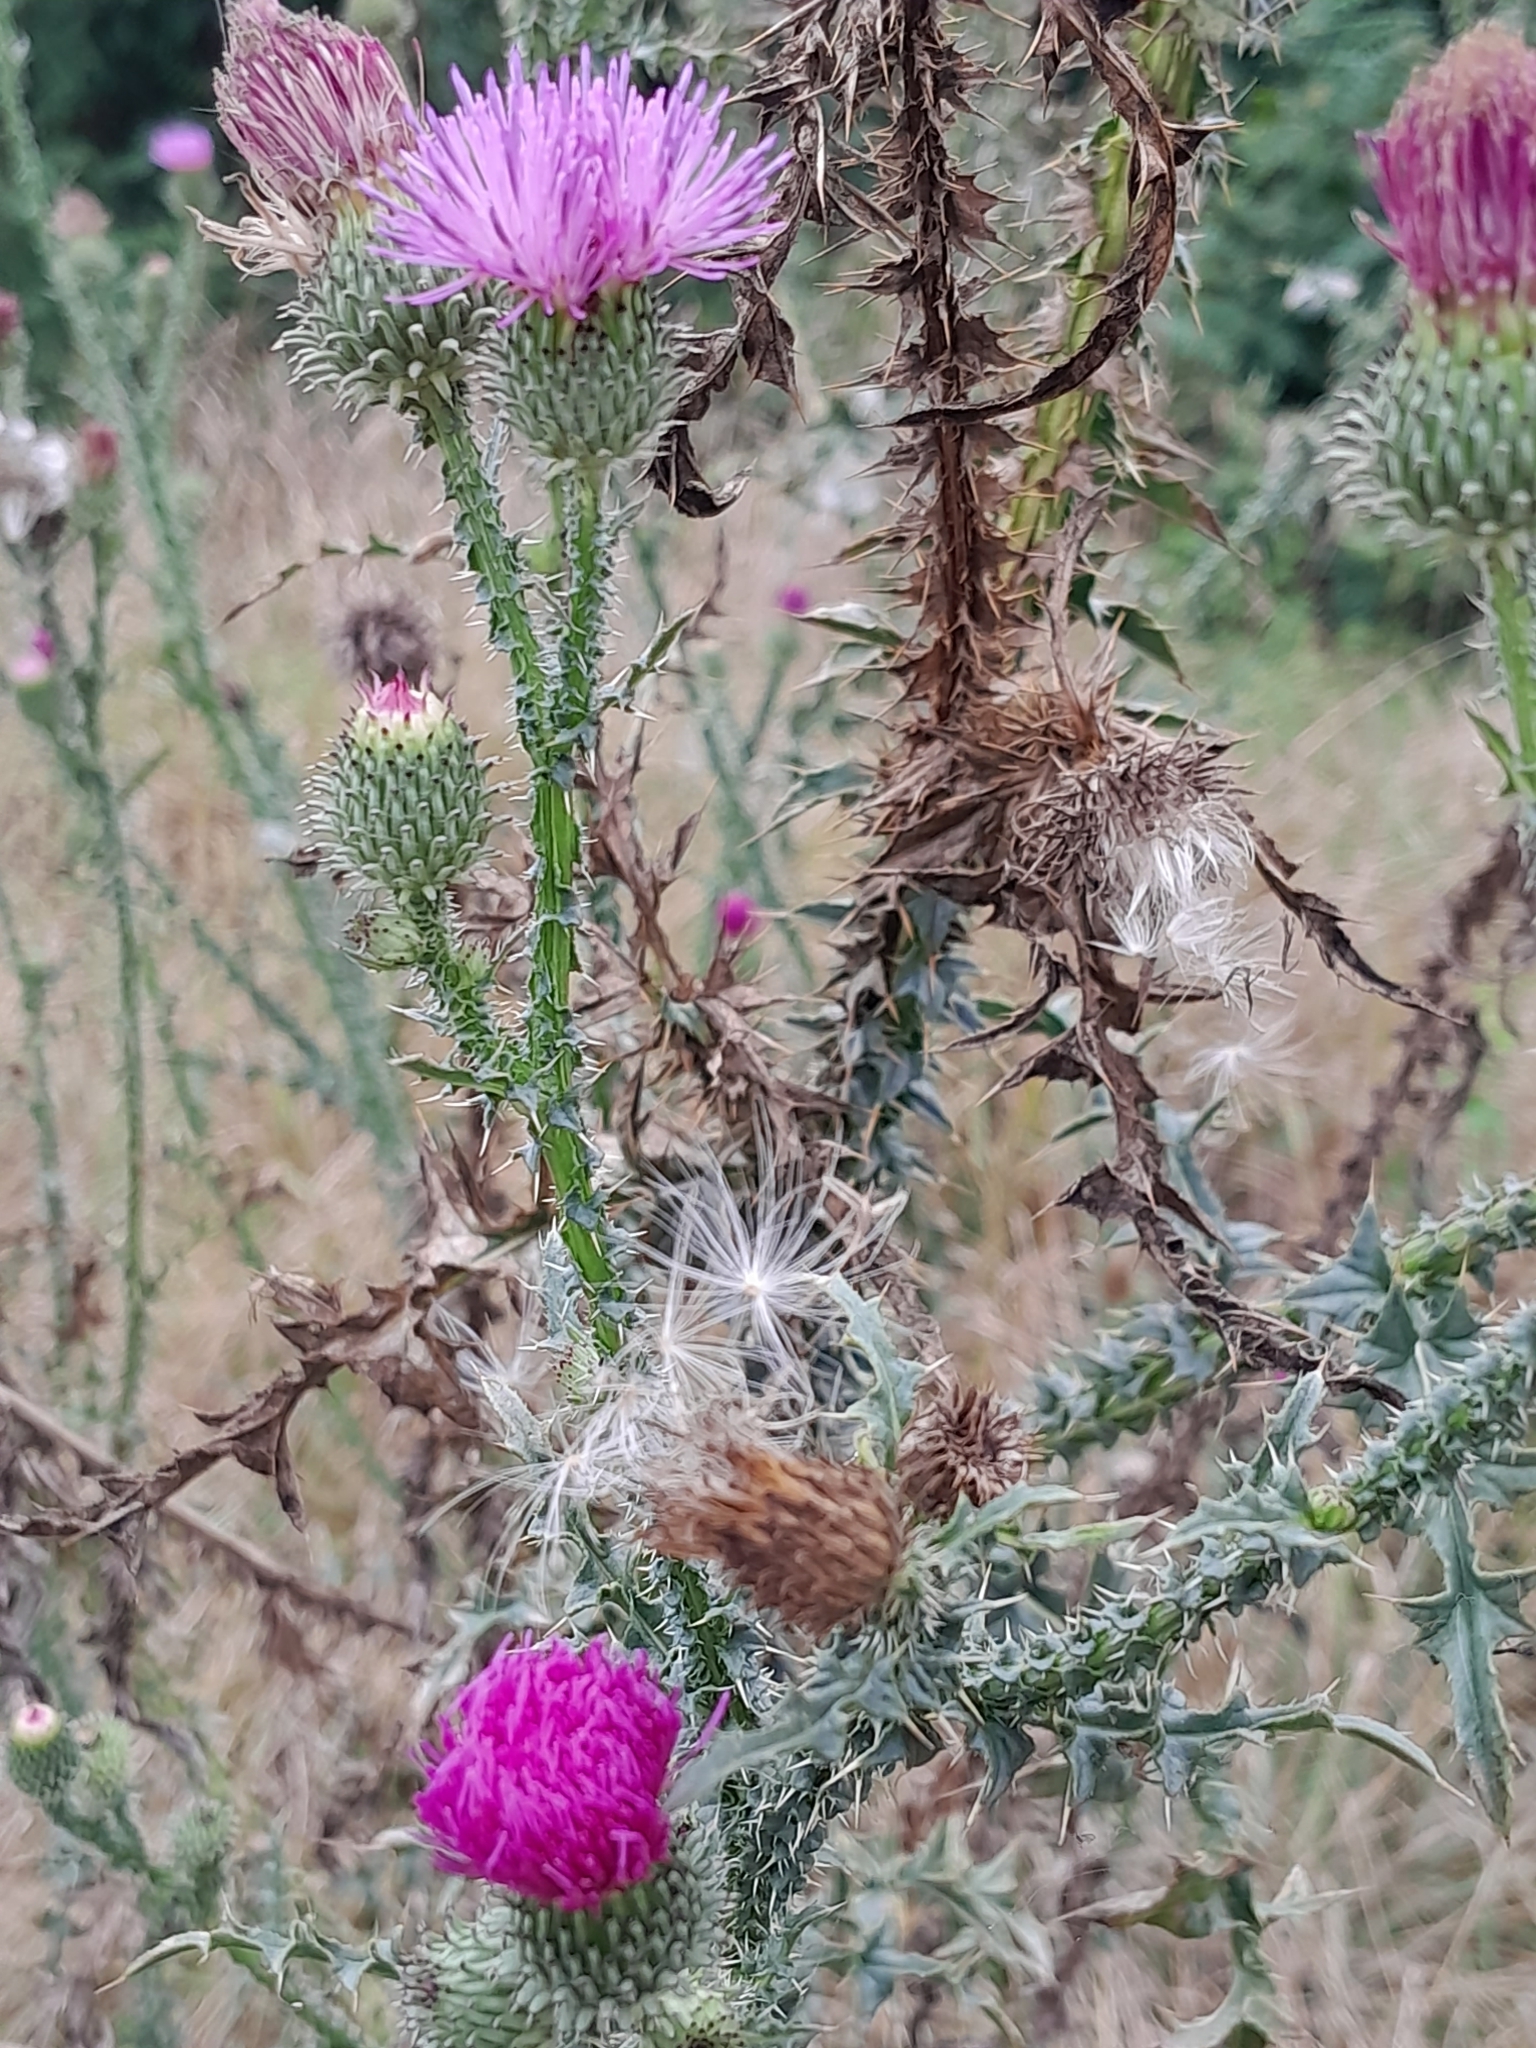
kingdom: Plantae
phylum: Tracheophyta
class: Magnoliopsida
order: Asterales
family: Asteraceae
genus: Carduus
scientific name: Carduus acanthoides
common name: Plumeless thistle
